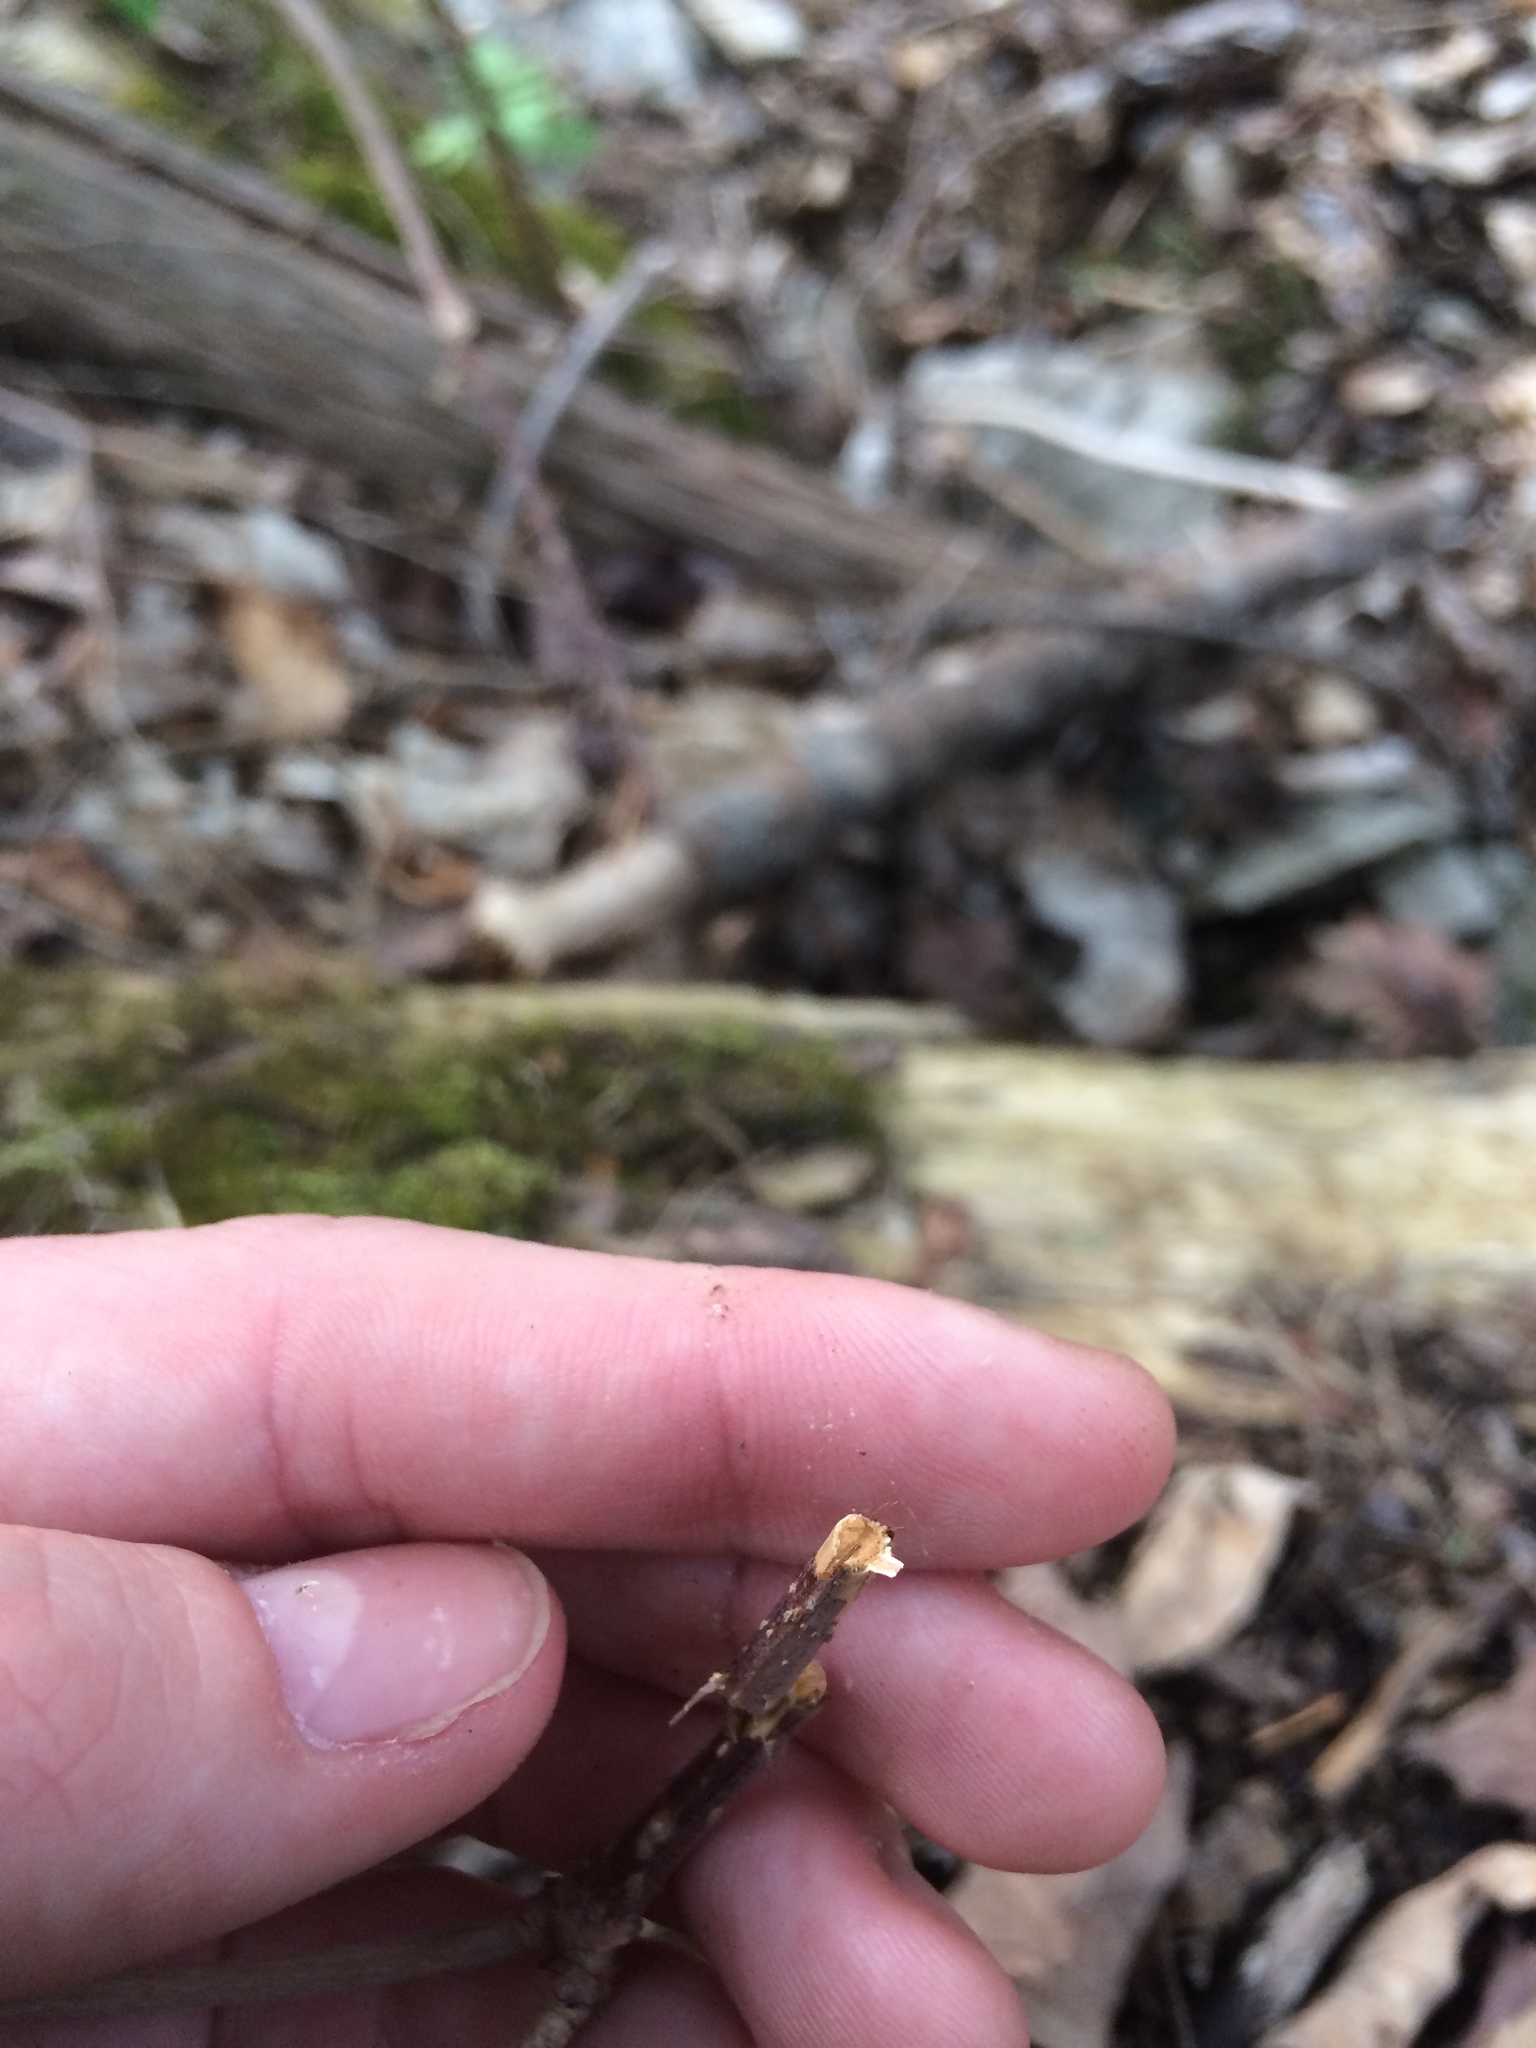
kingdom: Plantae
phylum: Tracheophyta
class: Magnoliopsida
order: Dipsacales
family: Viburnaceae
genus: Sambucus
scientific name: Sambucus racemosa
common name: Red-berried elder
